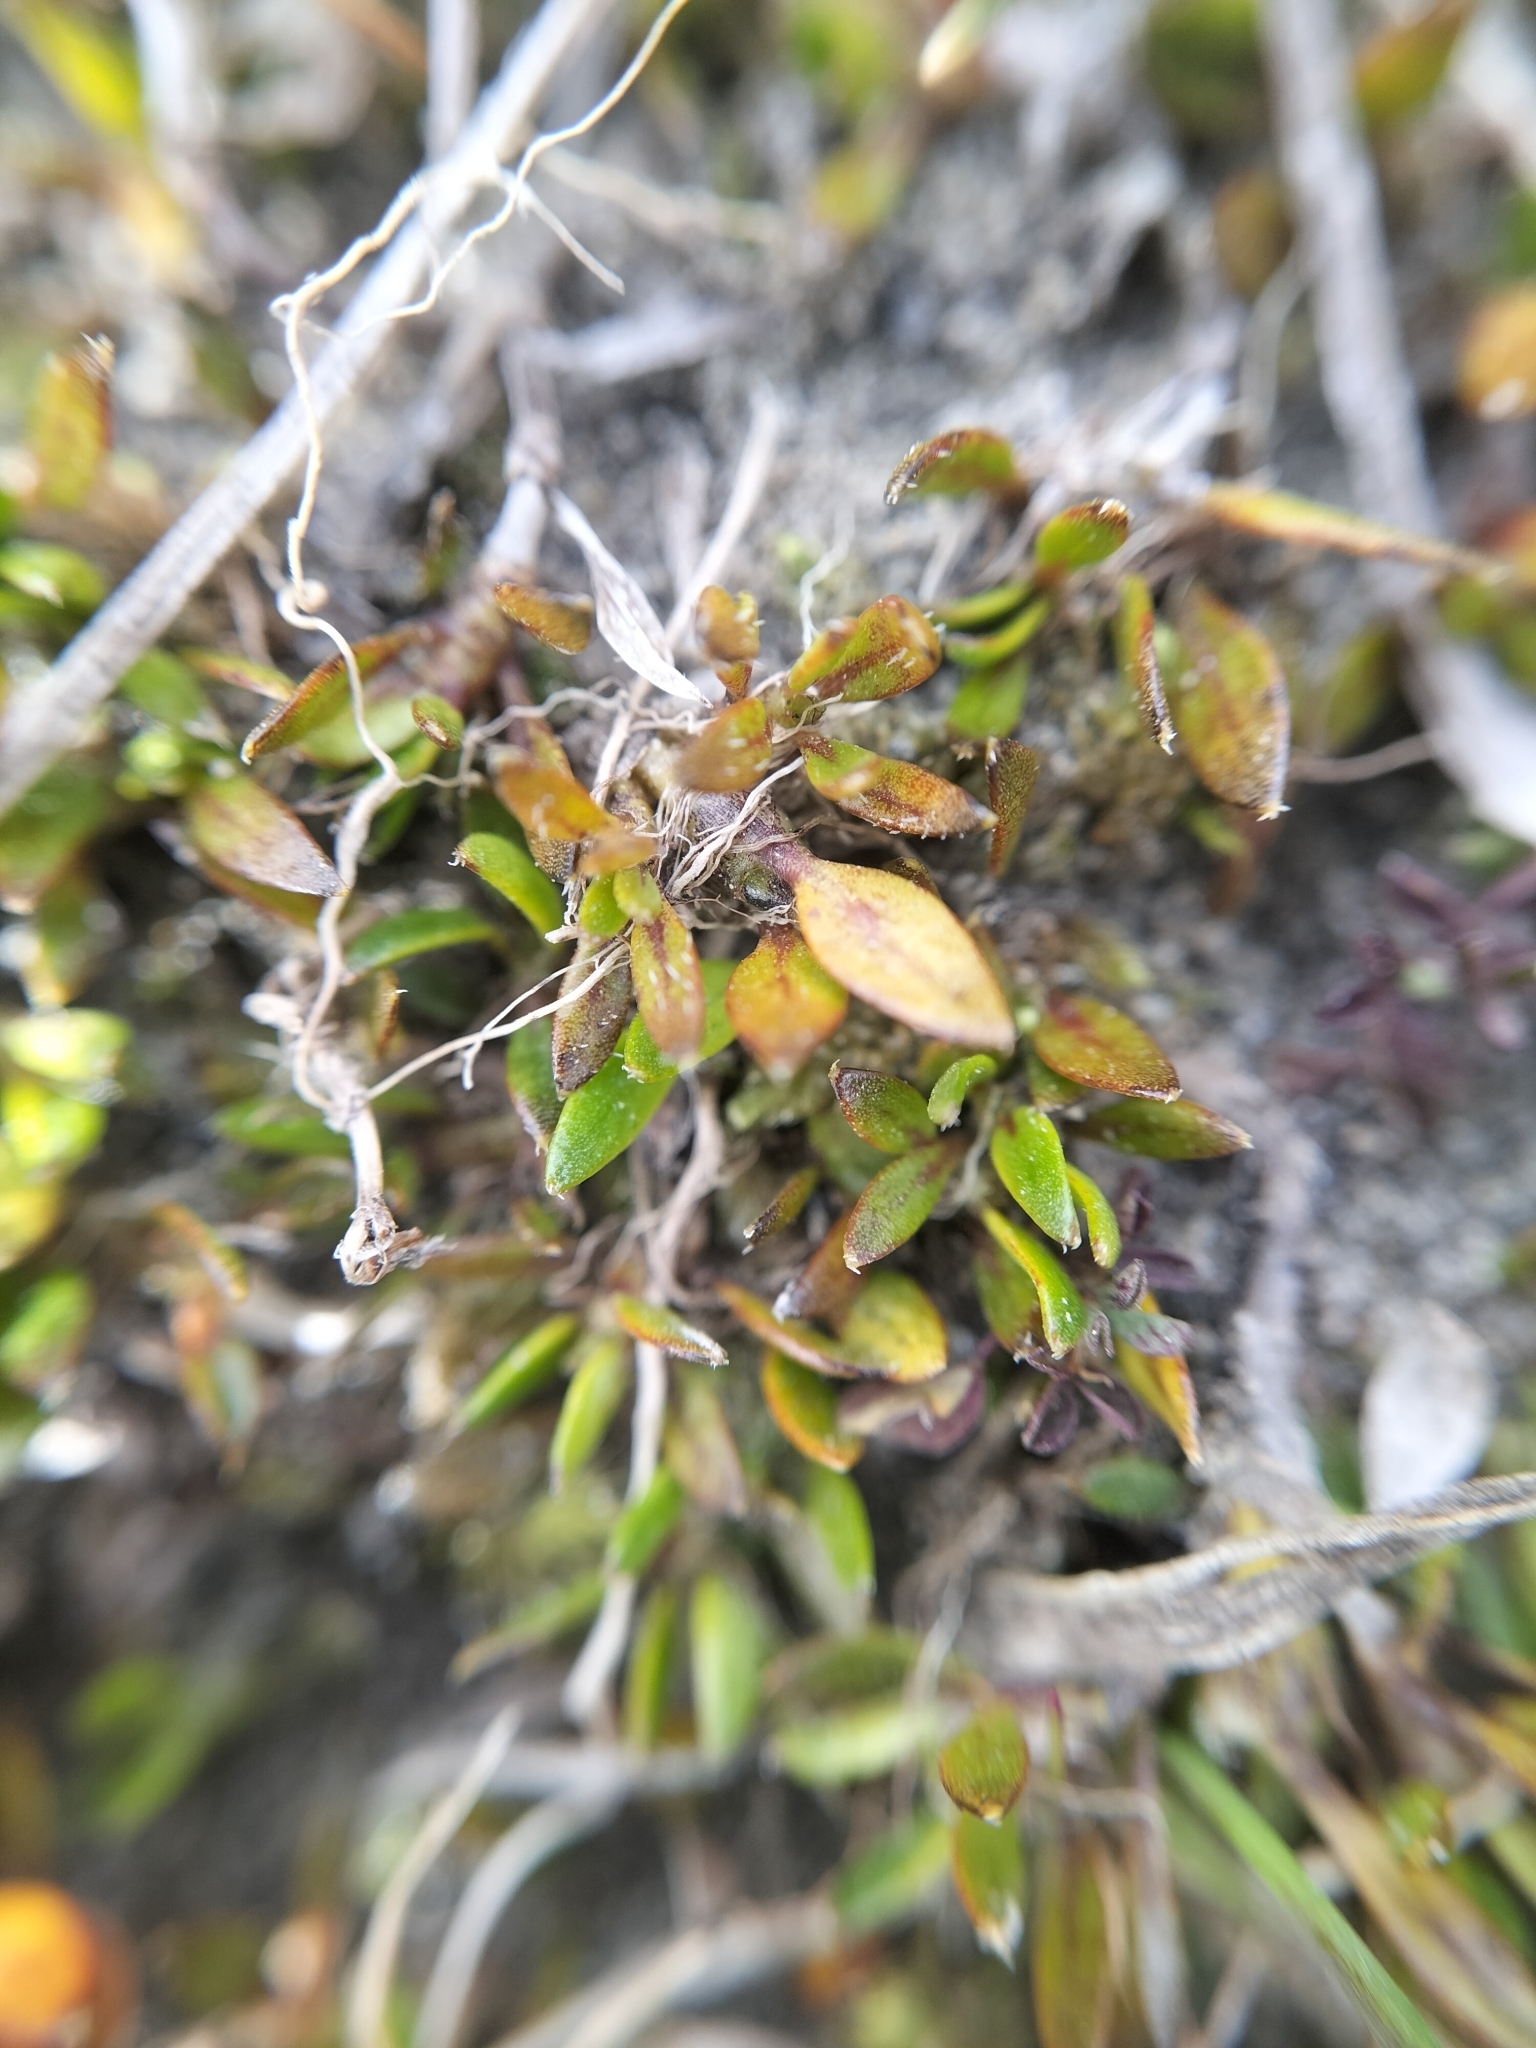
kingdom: Plantae
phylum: Tracheophyta
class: Magnoliopsida
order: Gentianales
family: Rubiaceae
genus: Coprosma
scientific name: Coprosma atropurpurea
